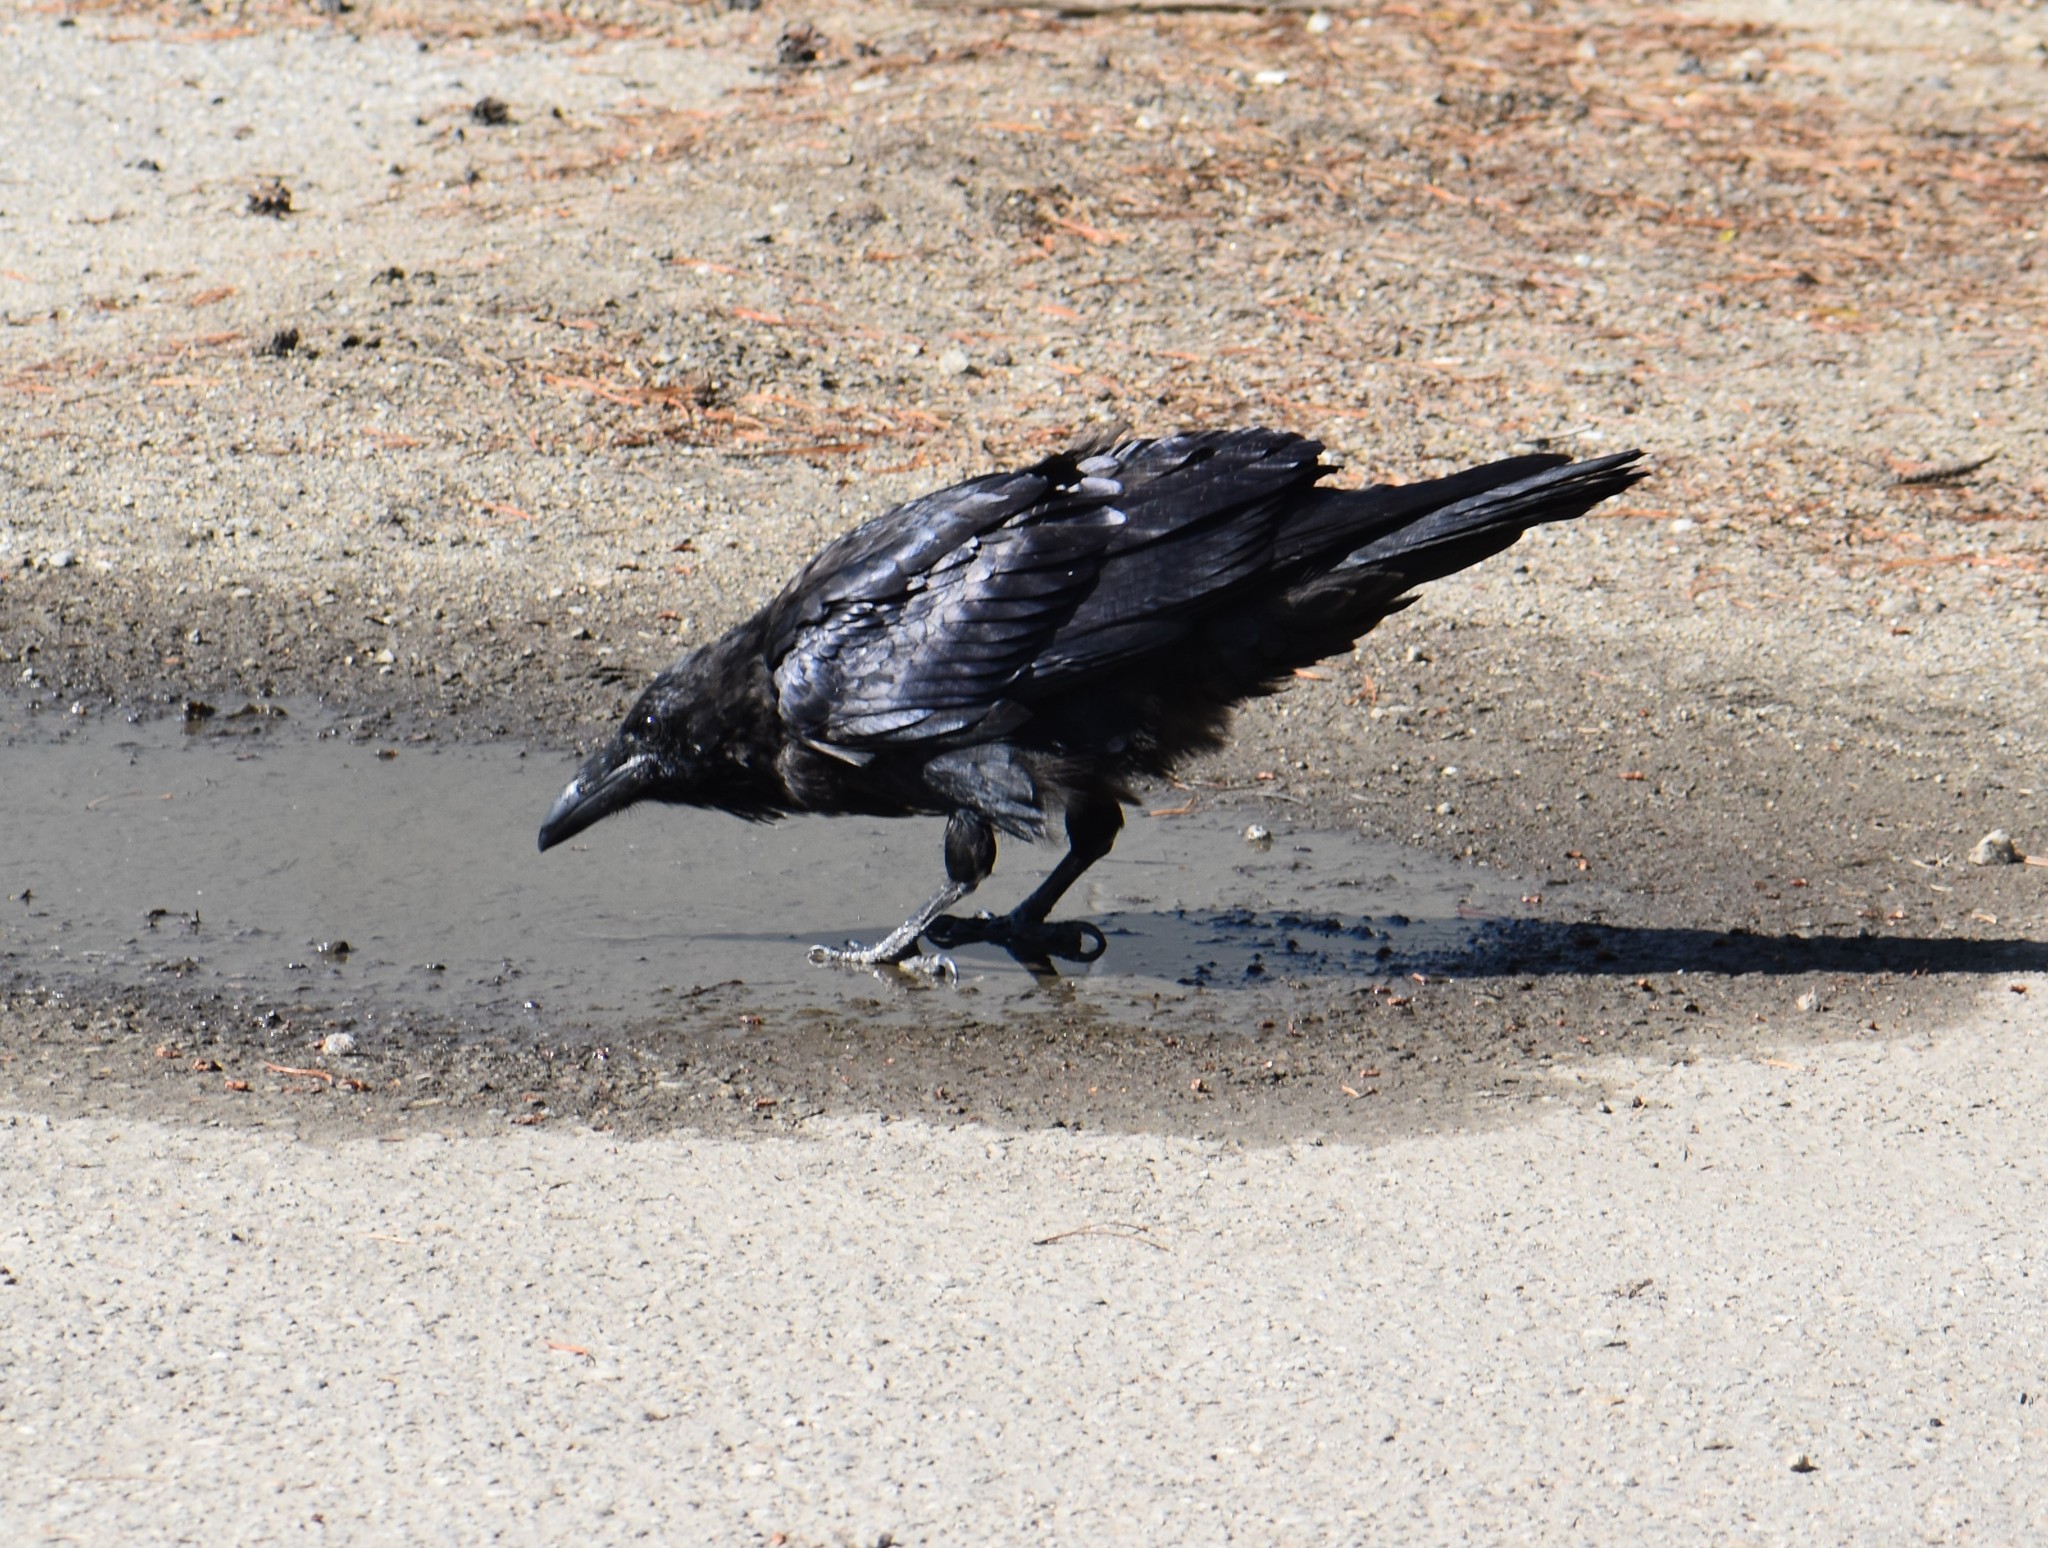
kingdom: Animalia
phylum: Chordata
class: Aves
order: Passeriformes
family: Corvidae
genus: Corvus
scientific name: Corvus corax
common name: Common raven
